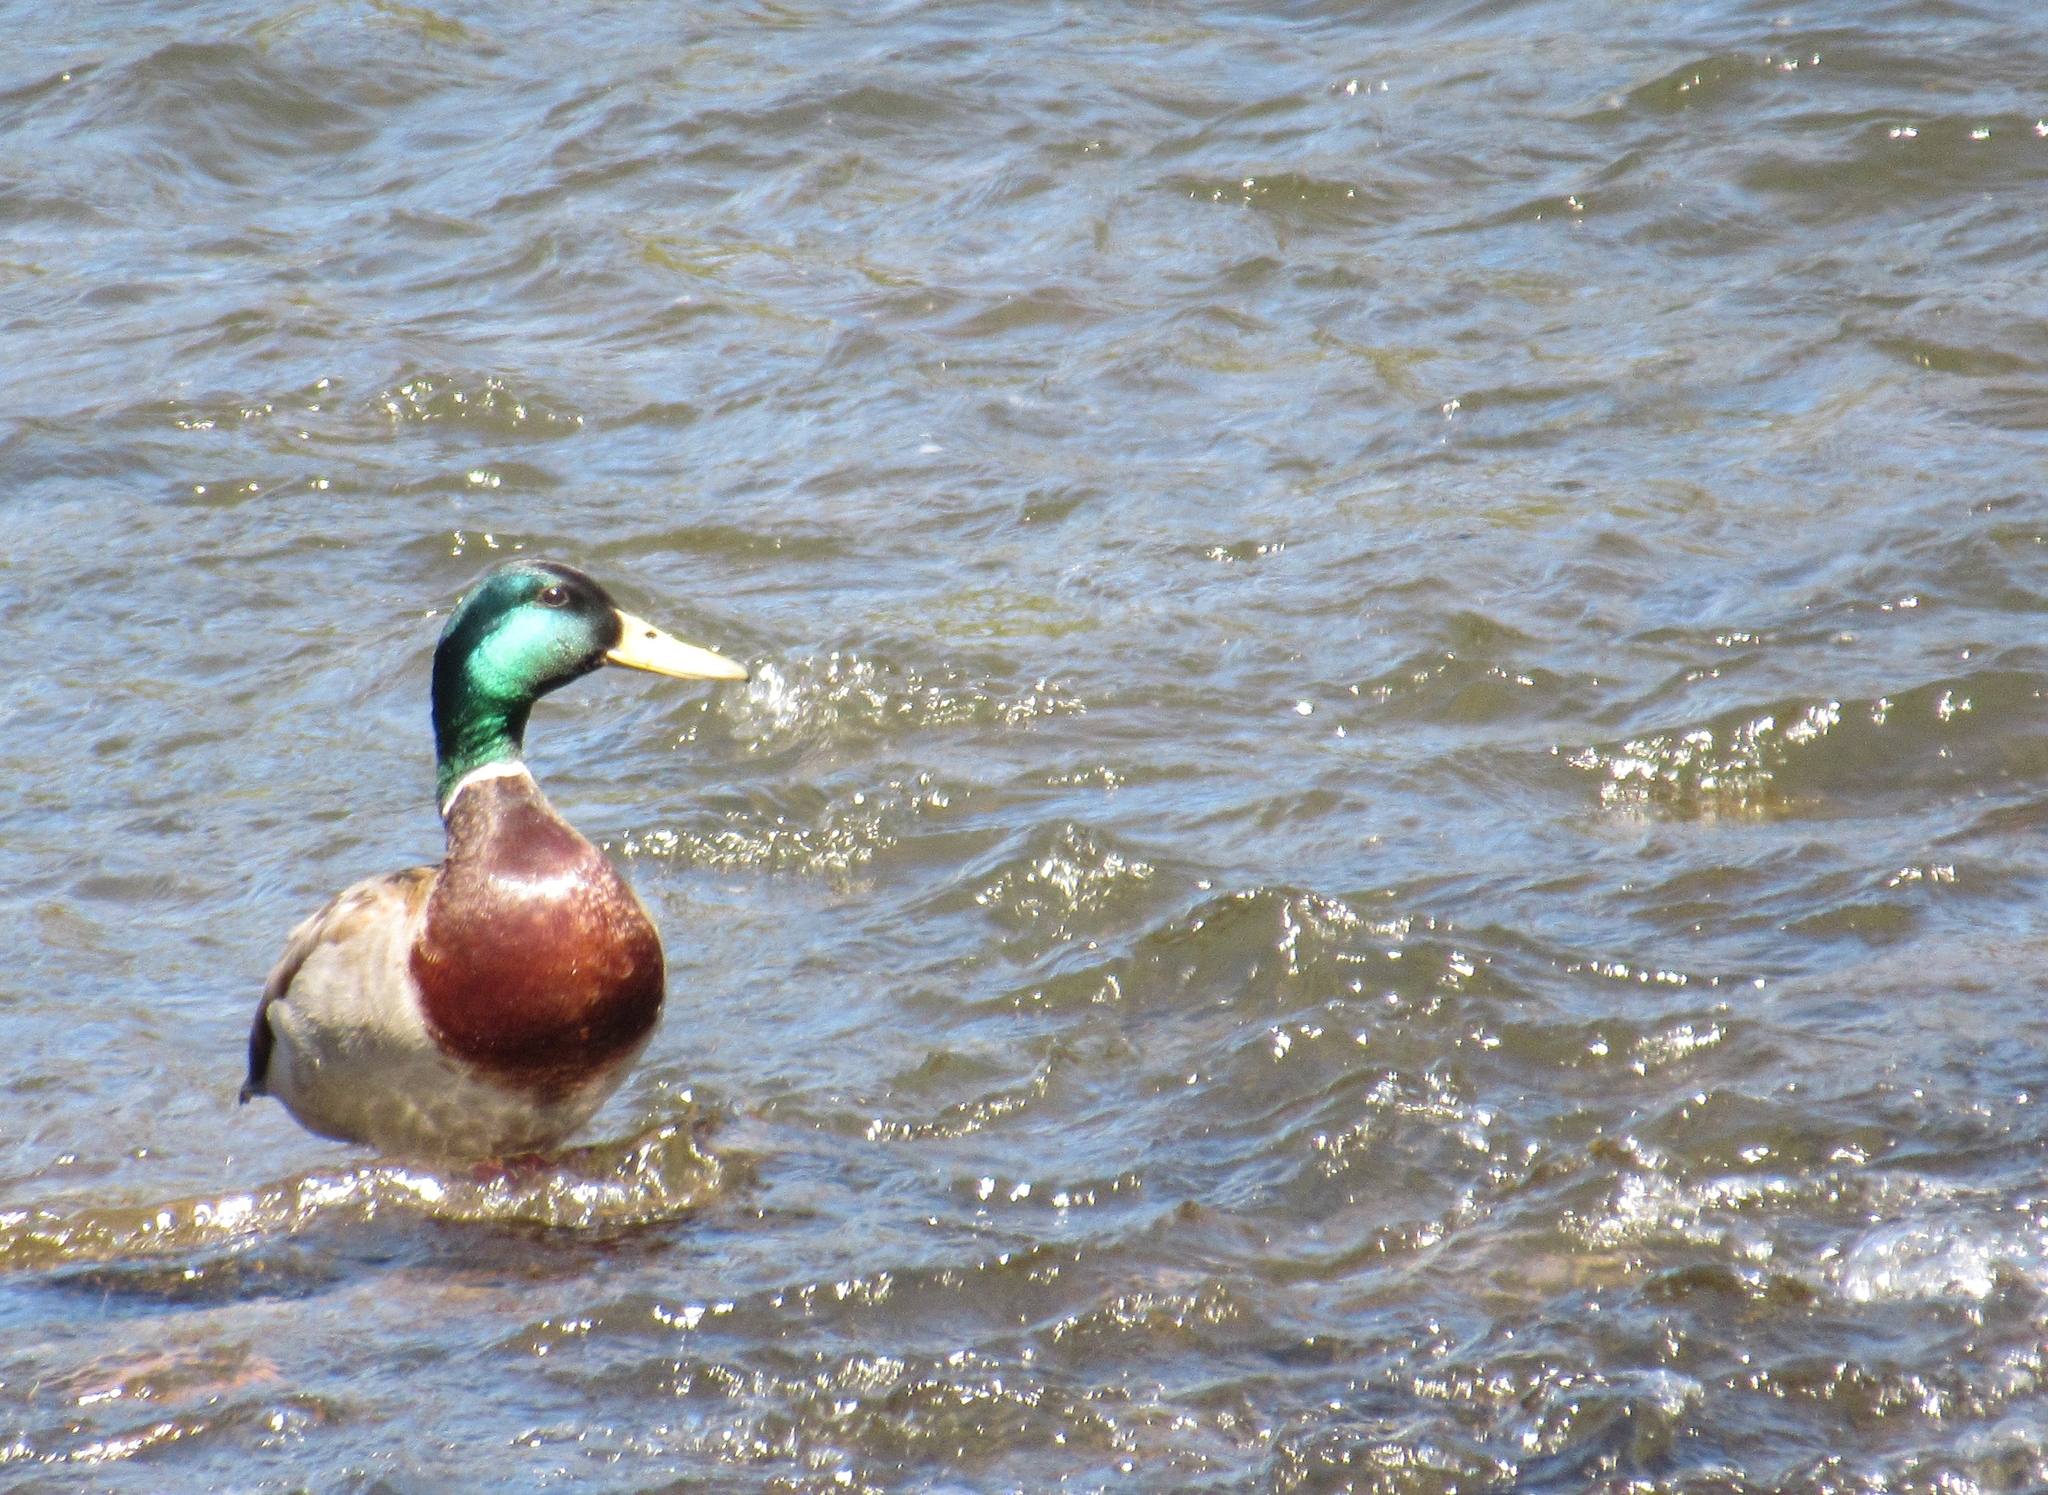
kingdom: Animalia
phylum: Chordata
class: Aves
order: Anseriformes
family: Anatidae
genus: Anas
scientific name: Anas platyrhynchos
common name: Mallard
